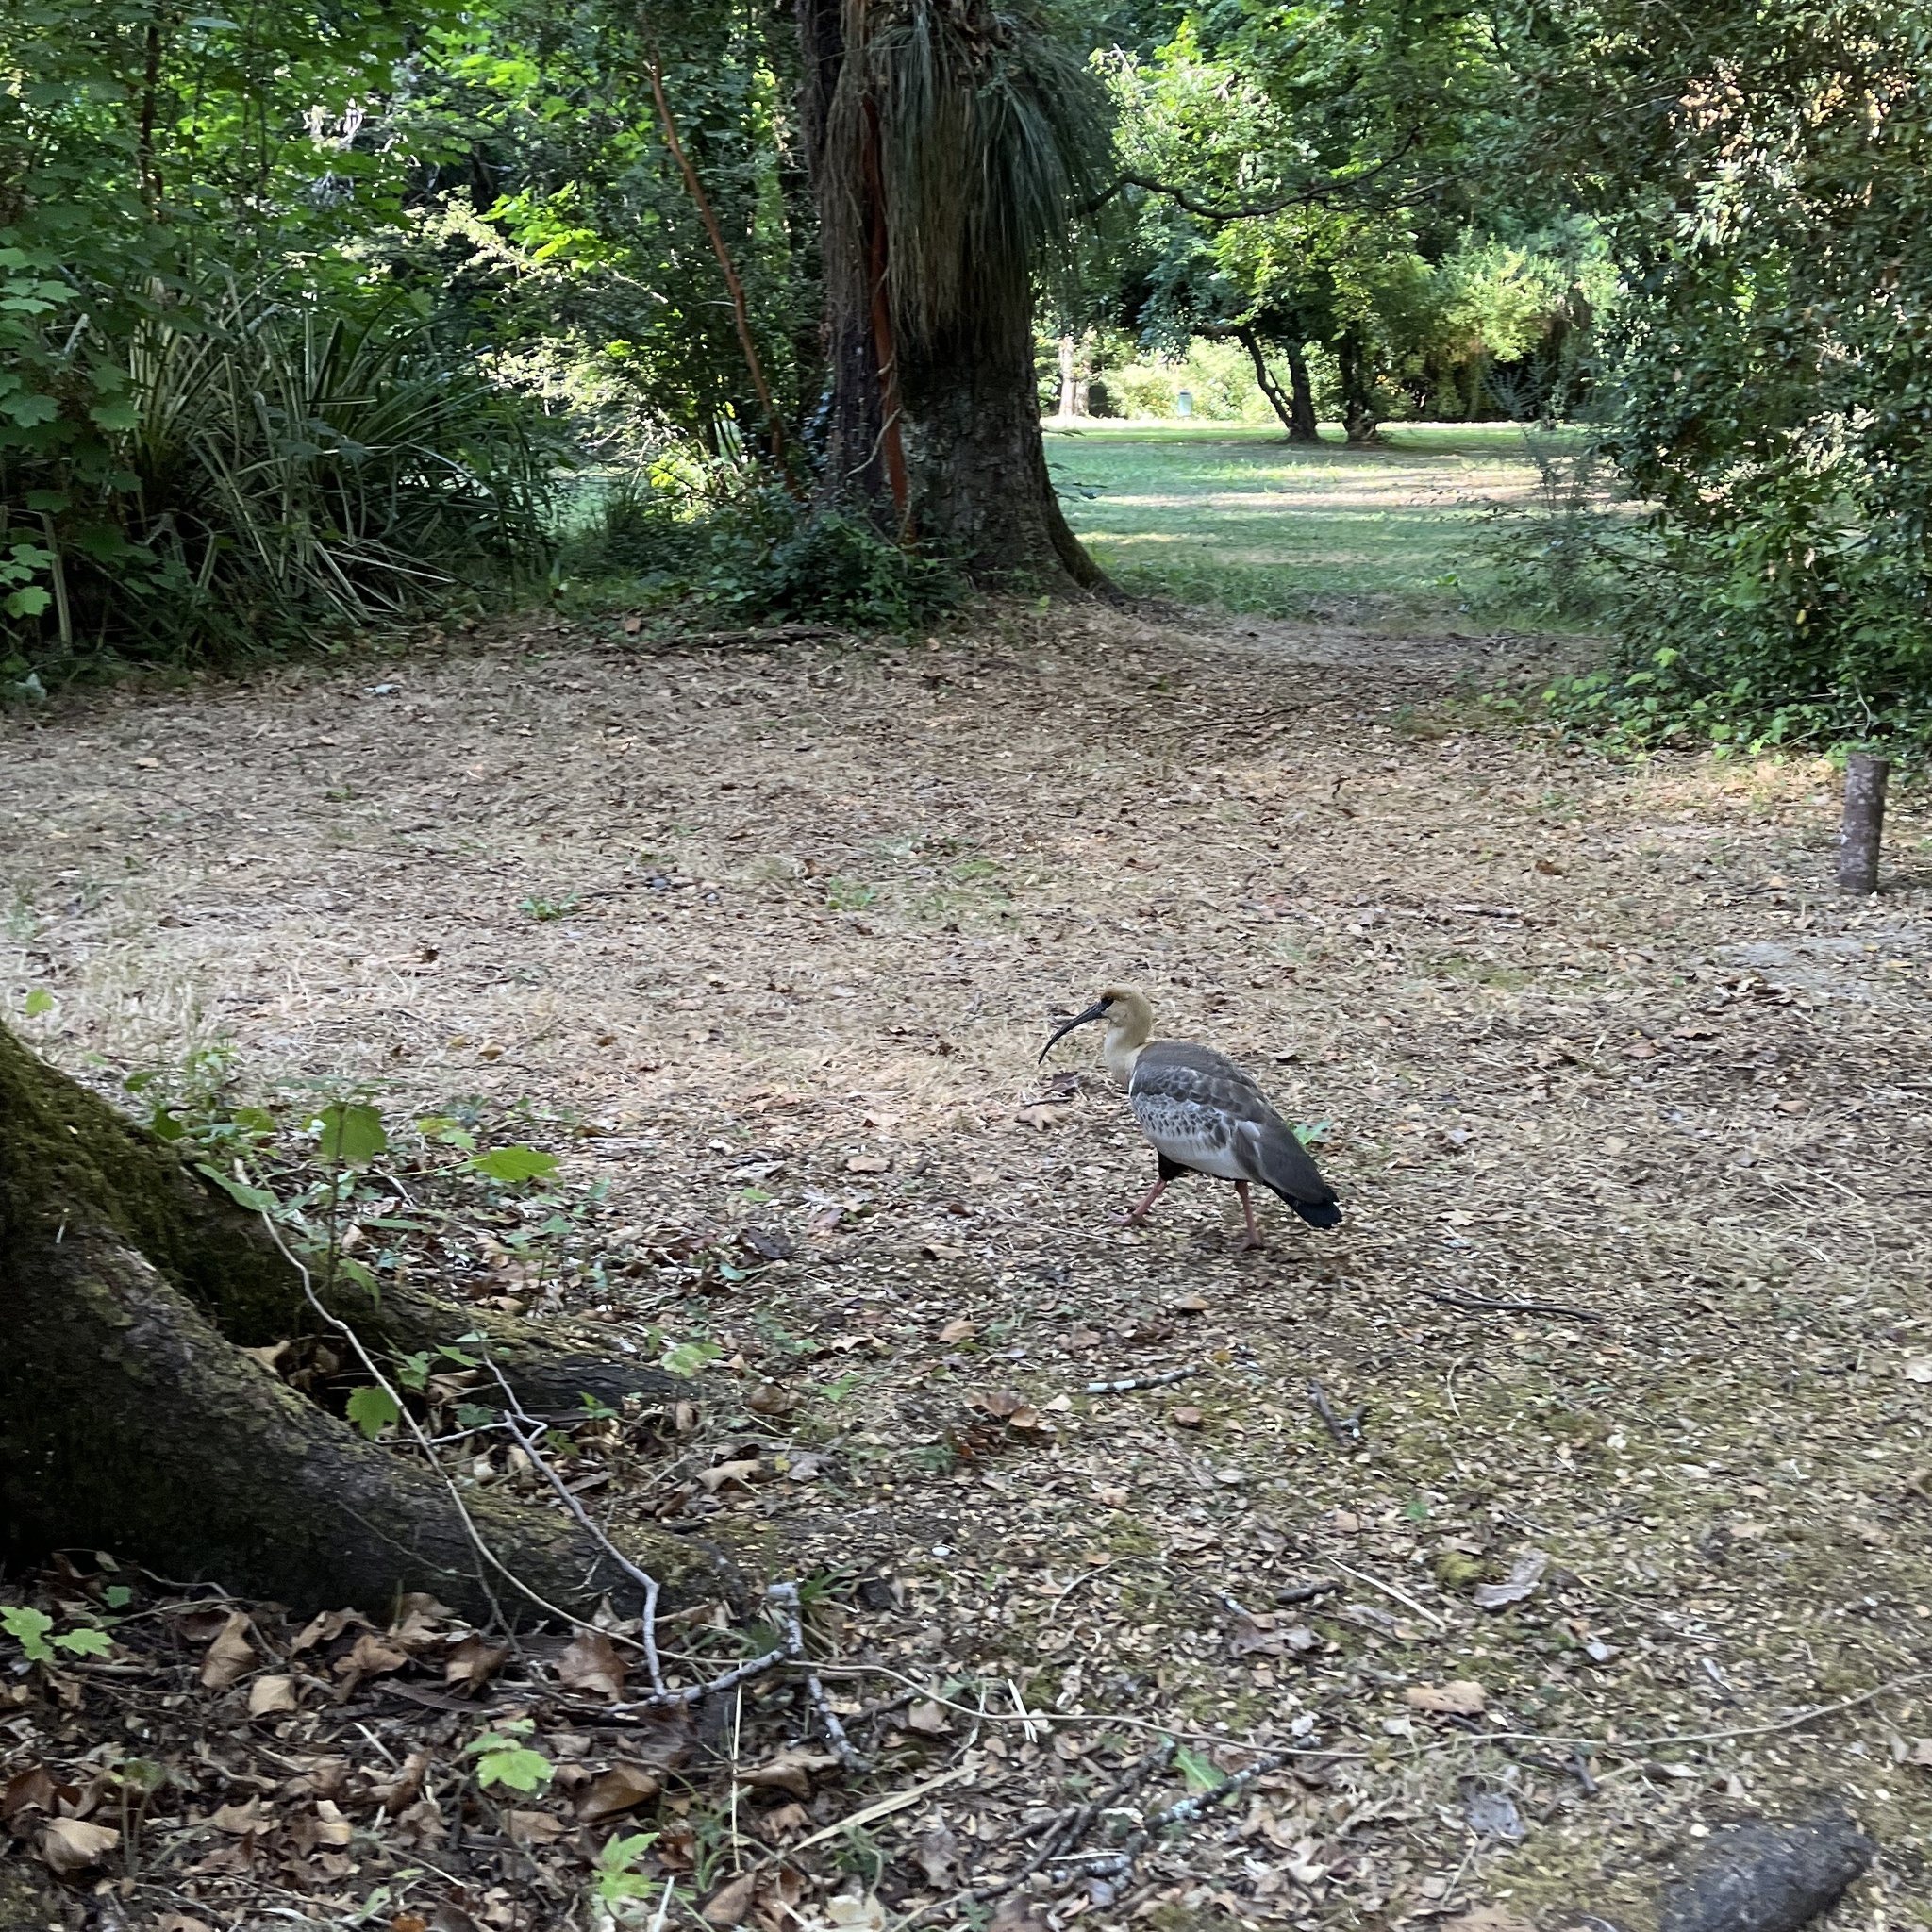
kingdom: Animalia
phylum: Chordata
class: Aves
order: Pelecaniformes
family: Threskiornithidae
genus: Theristicus
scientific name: Theristicus melanopis
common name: Black-faced ibis
